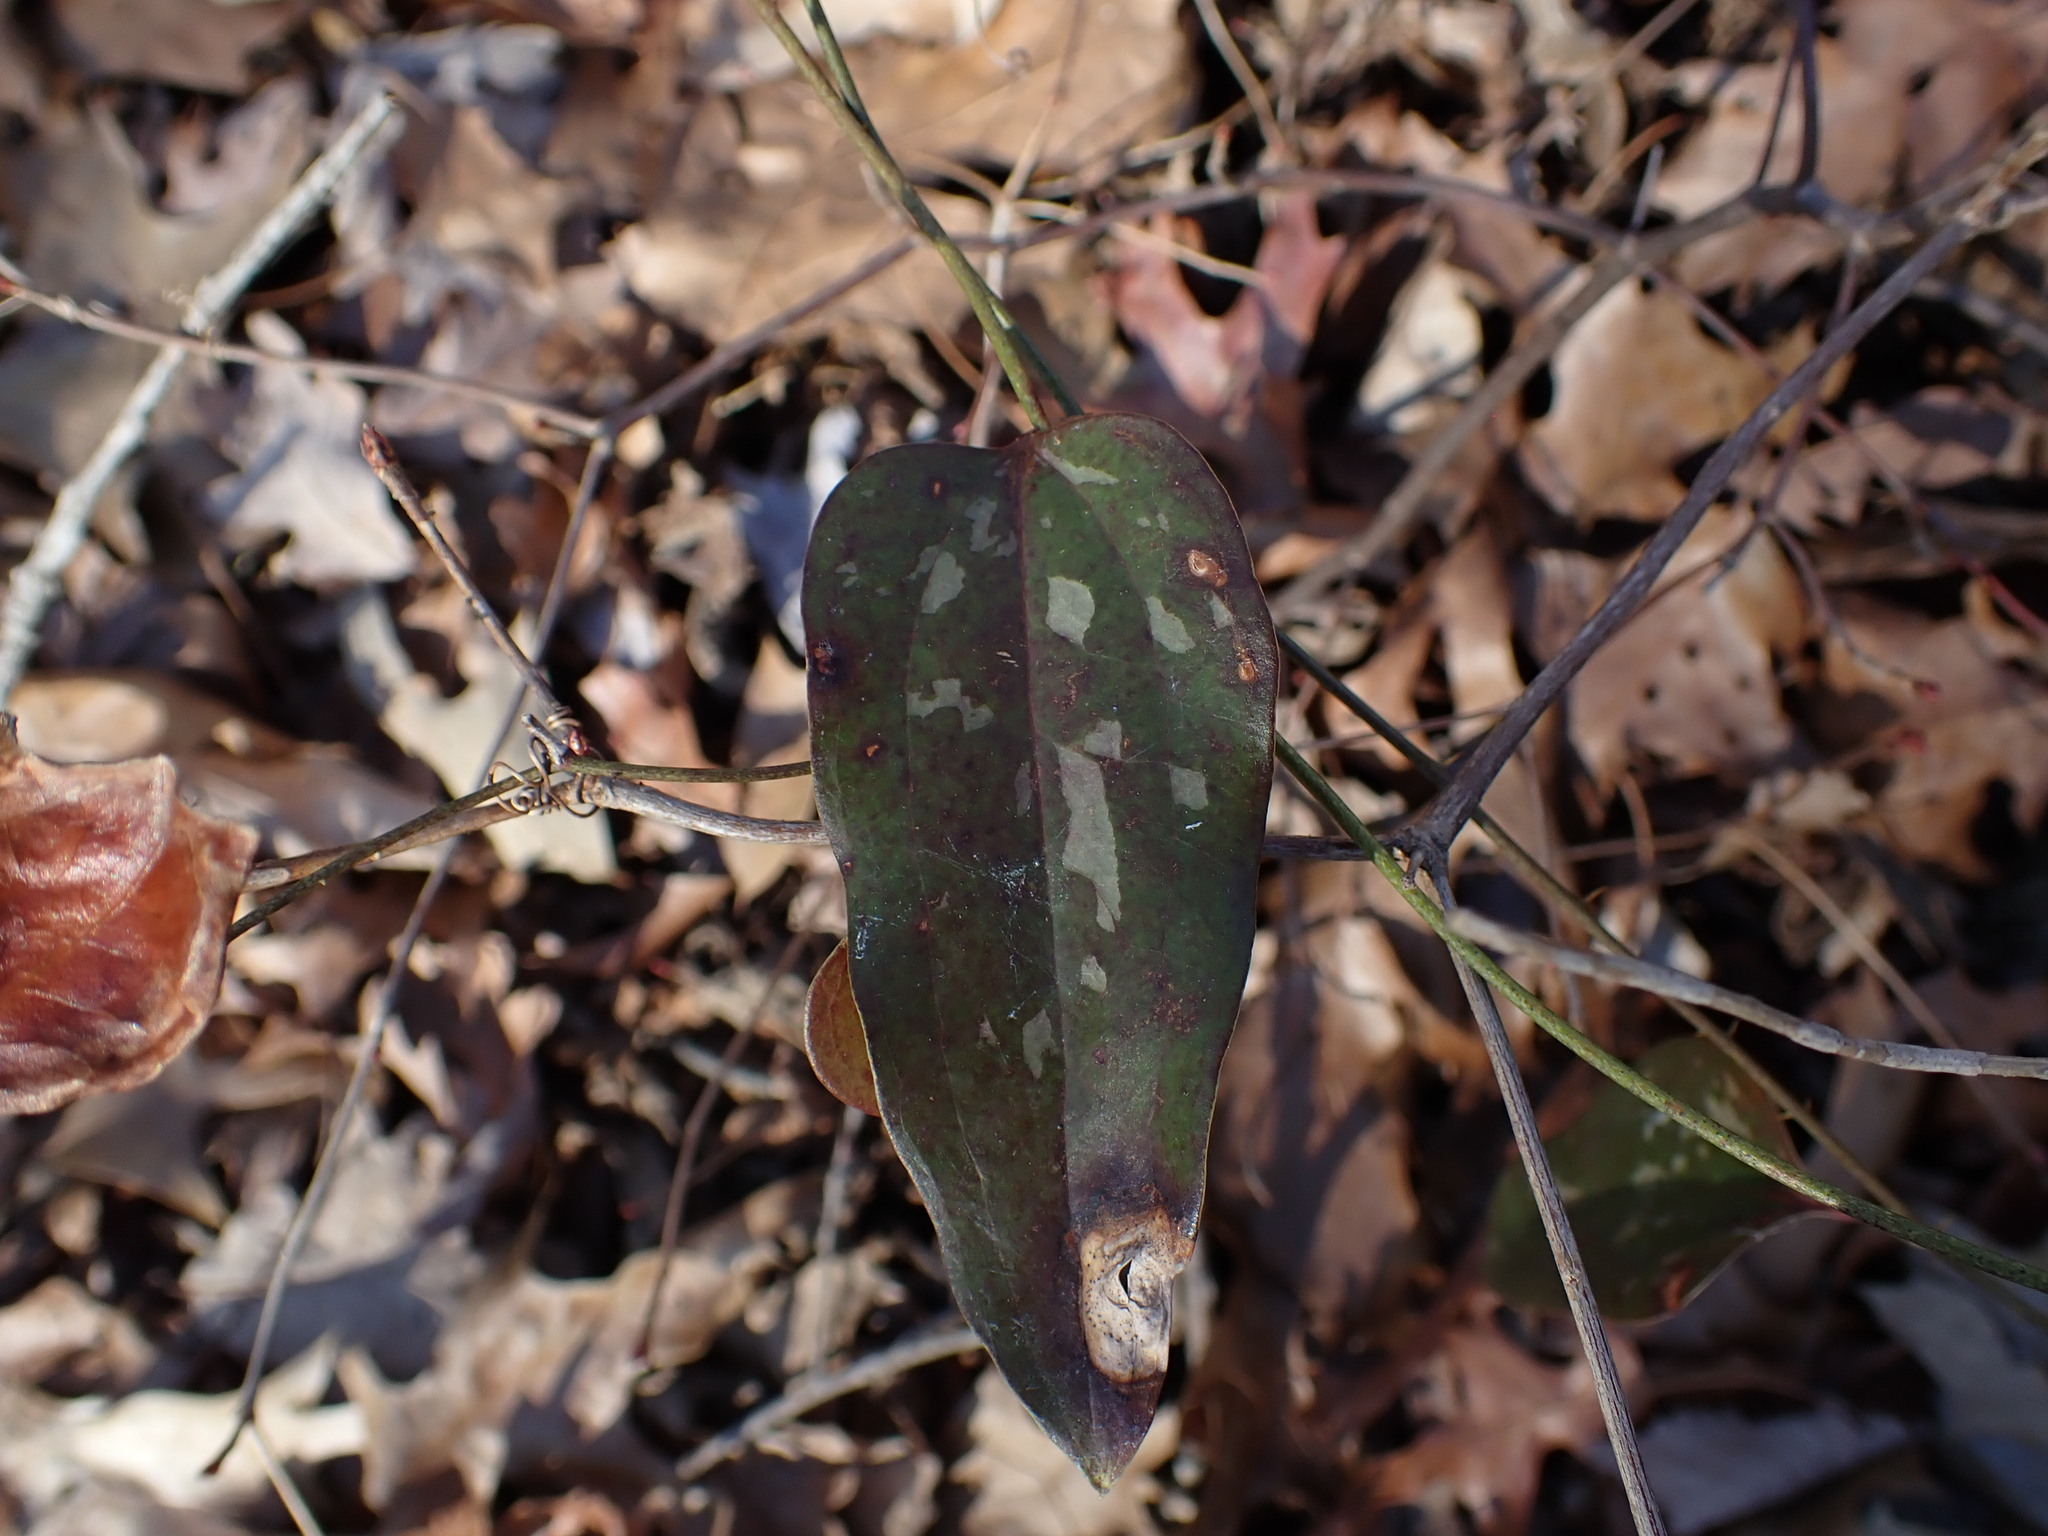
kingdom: Plantae
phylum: Tracheophyta
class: Liliopsida
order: Liliales
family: Smilacaceae
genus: Smilax
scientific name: Smilax glauca
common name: Cat greenbrier
